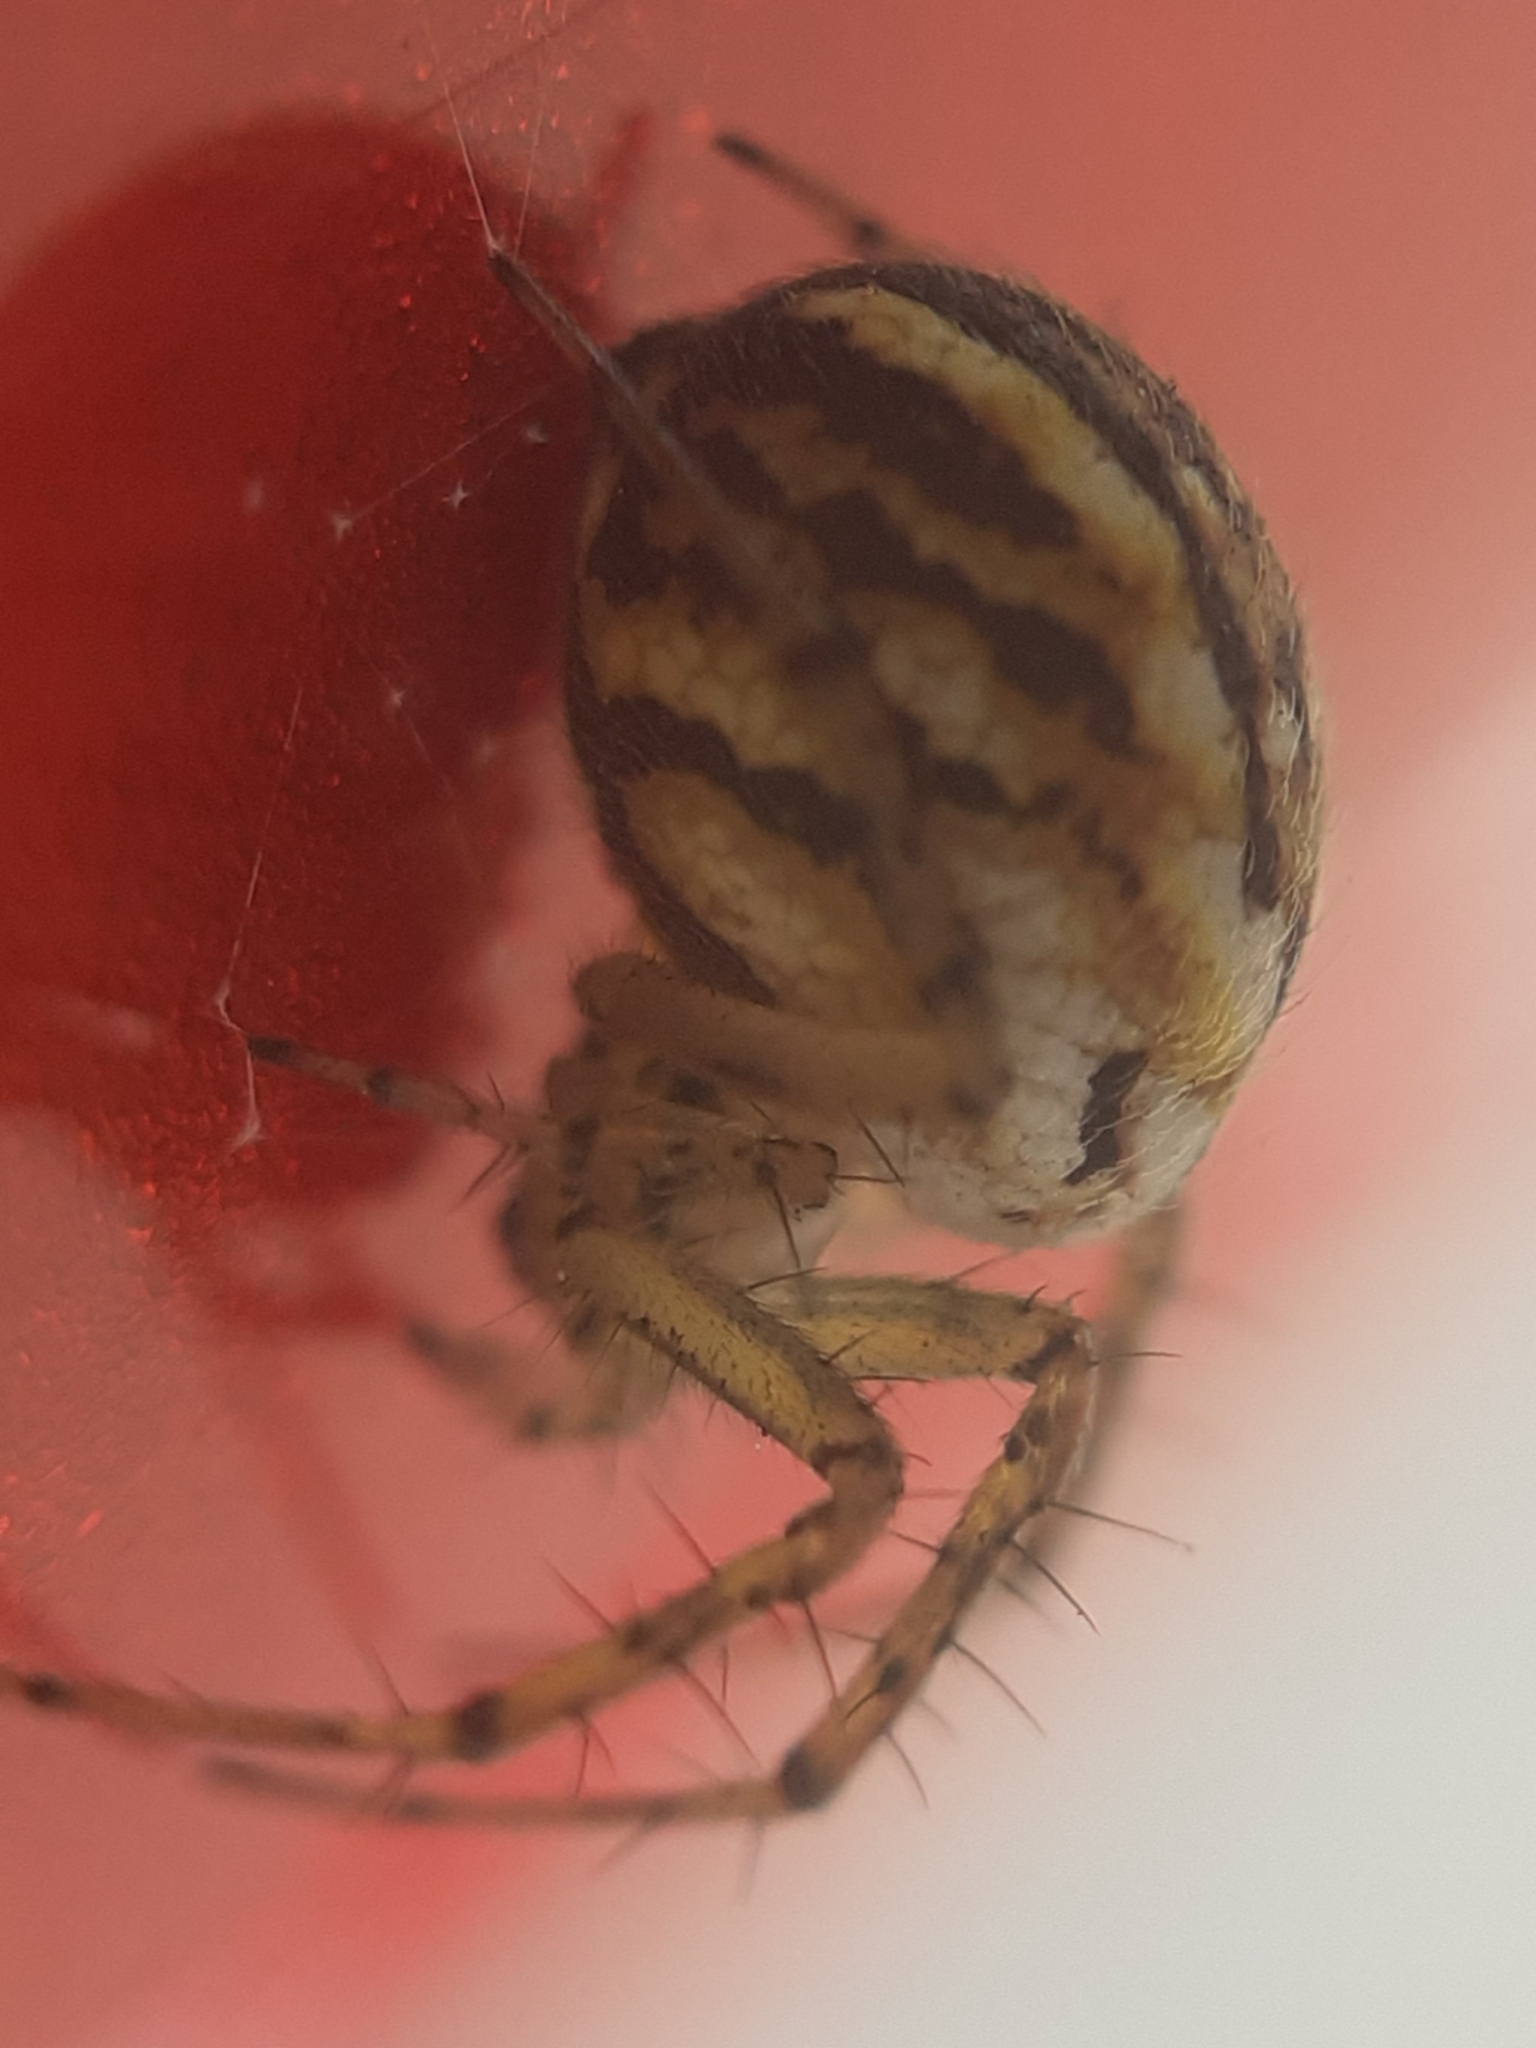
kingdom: Animalia
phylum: Arthropoda
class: Arachnida
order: Araneae
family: Araneidae
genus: Mangora
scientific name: Mangora acalypha
